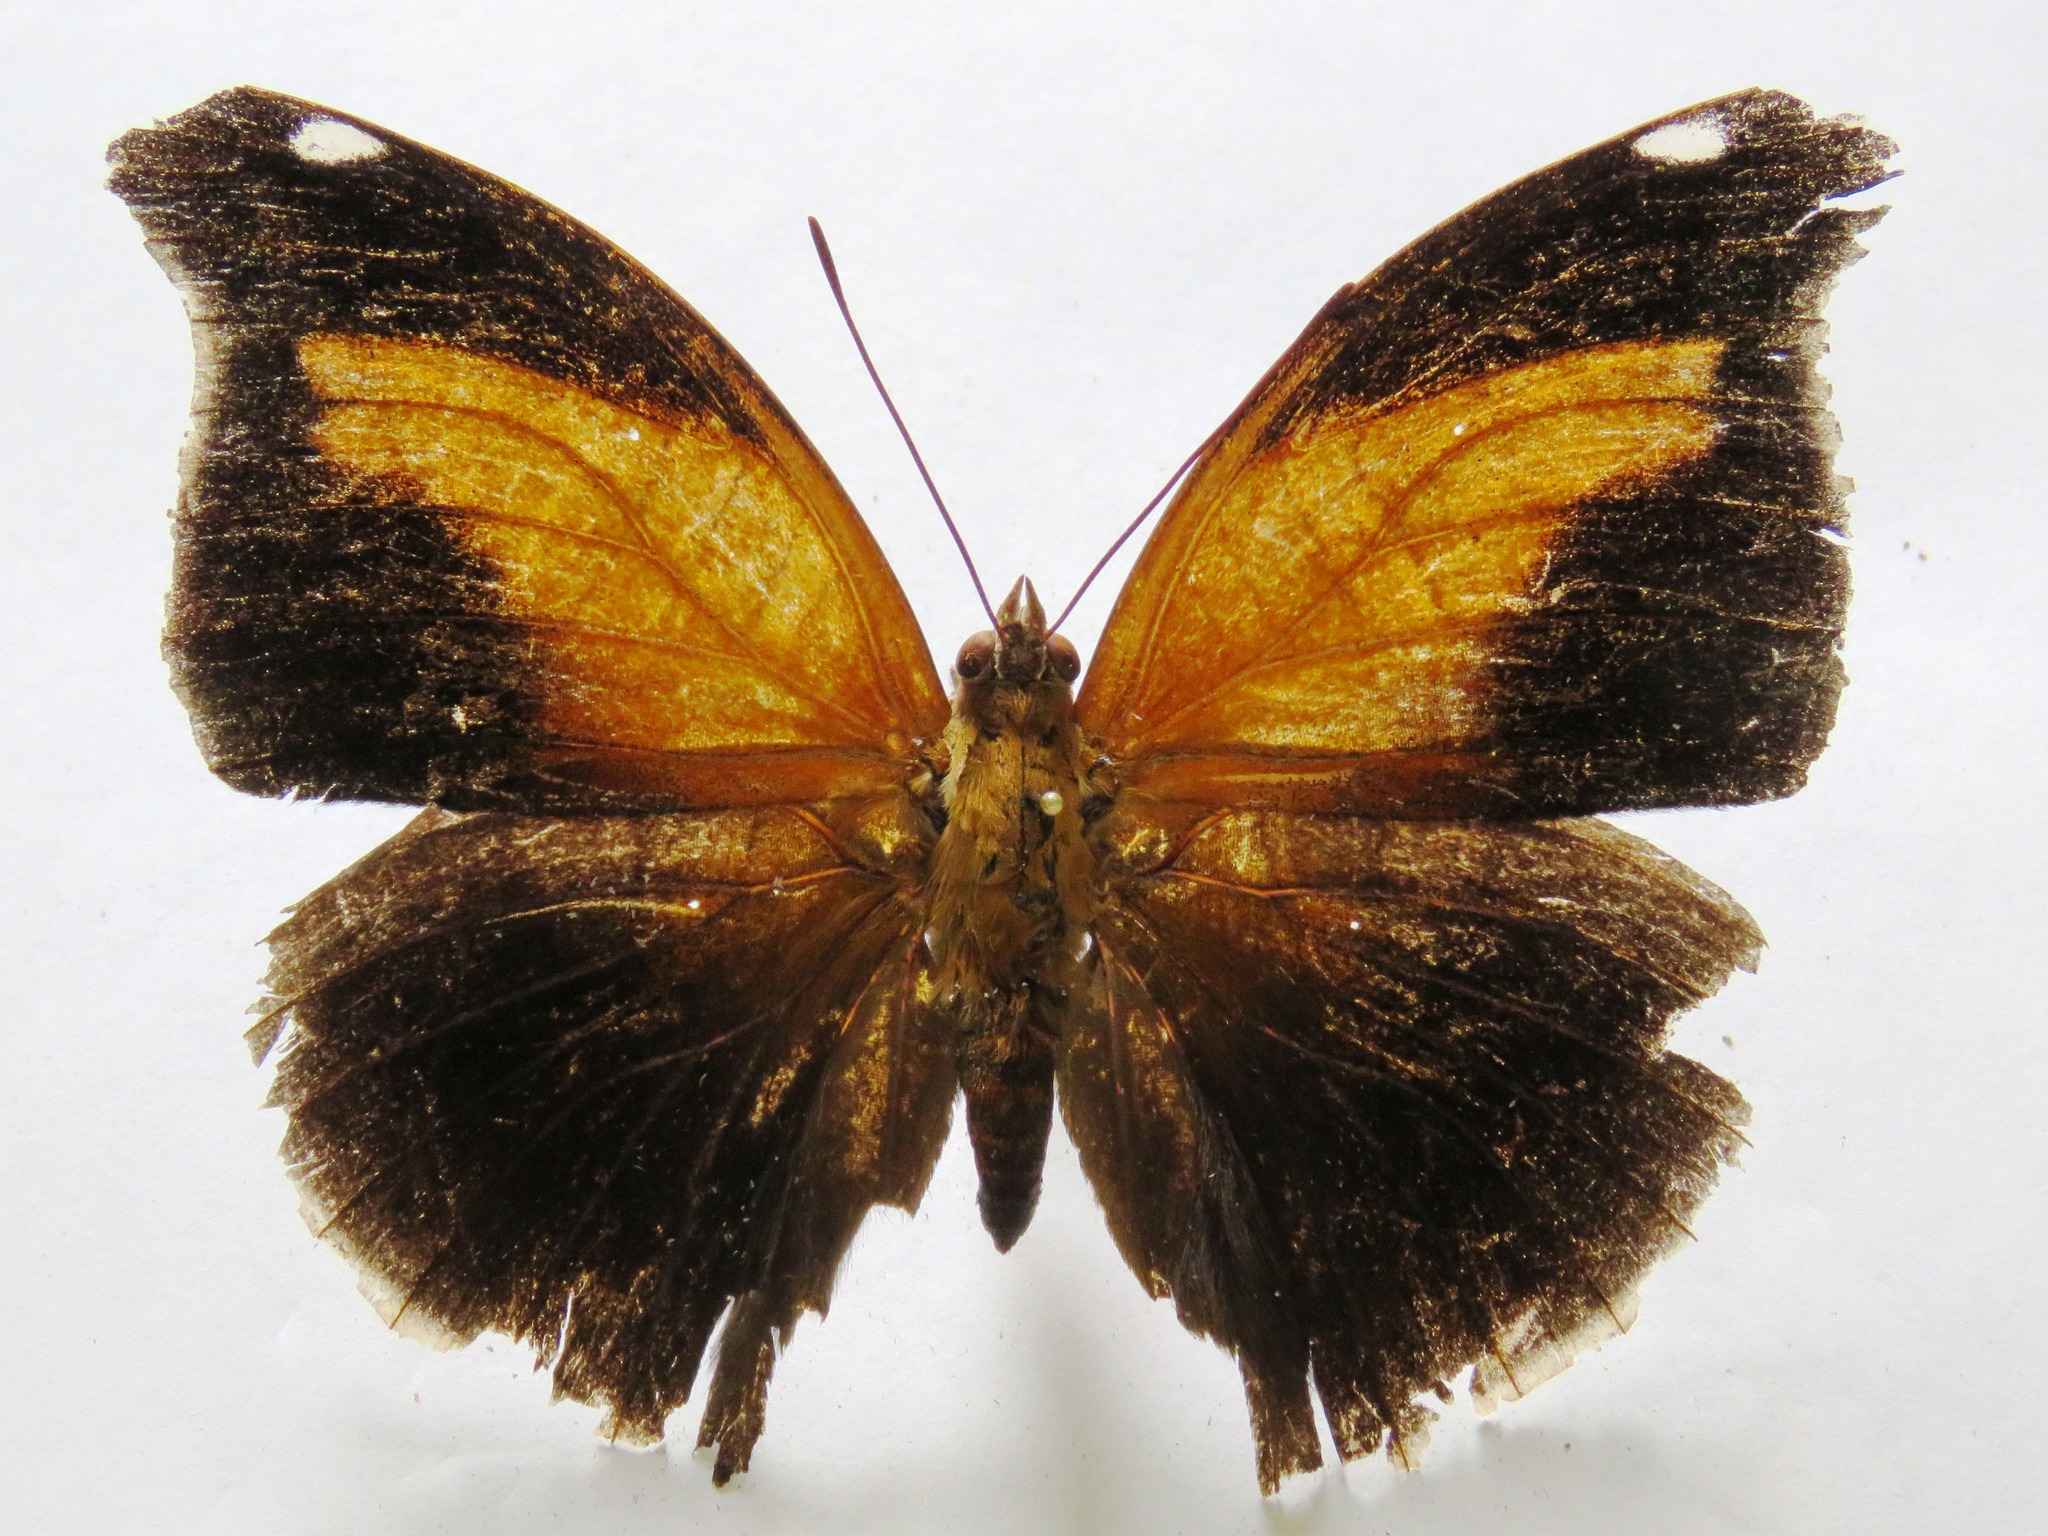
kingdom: Animalia
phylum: Arthropoda
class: Insecta
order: Lepidoptera
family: Nymphalidae
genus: Historis
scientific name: Historis odius
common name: Orion cecropian
